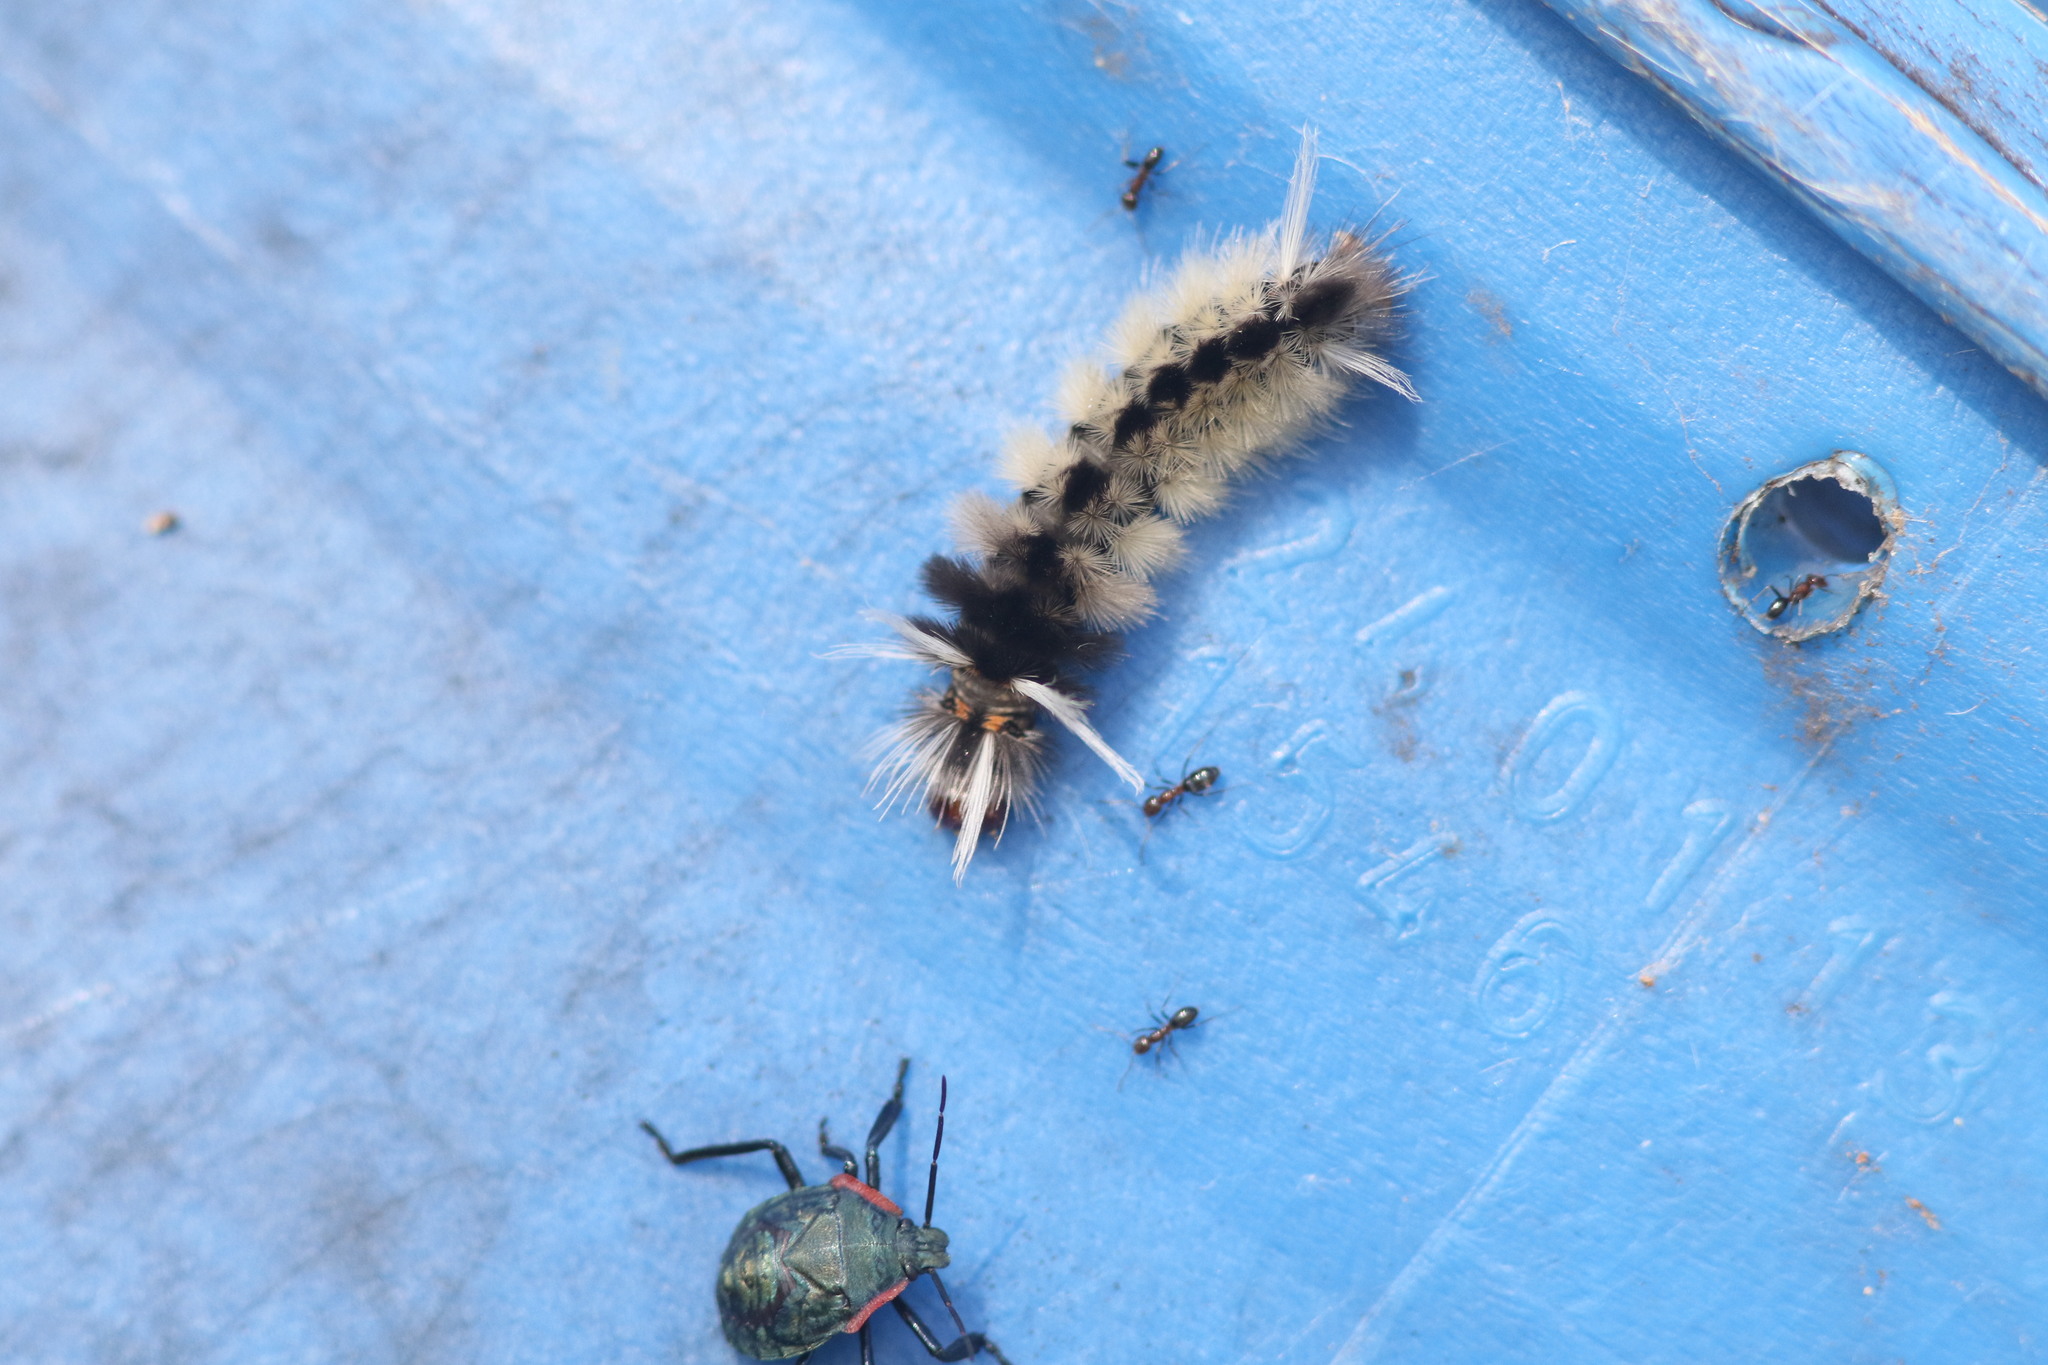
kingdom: Animalia
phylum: Arthropoda
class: Insecta
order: Lepidoptera
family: Erebidae
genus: Halysidota
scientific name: Halysidota schausi
